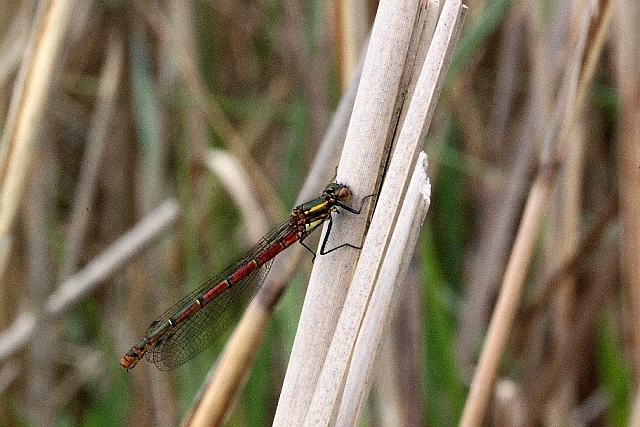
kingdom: Animalia
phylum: Arthropoda
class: Insecta
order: Odonata
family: Coenagrionidae
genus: Pyrrhosoma
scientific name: Pyrrhosoma nymphula
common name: Large red damsel
